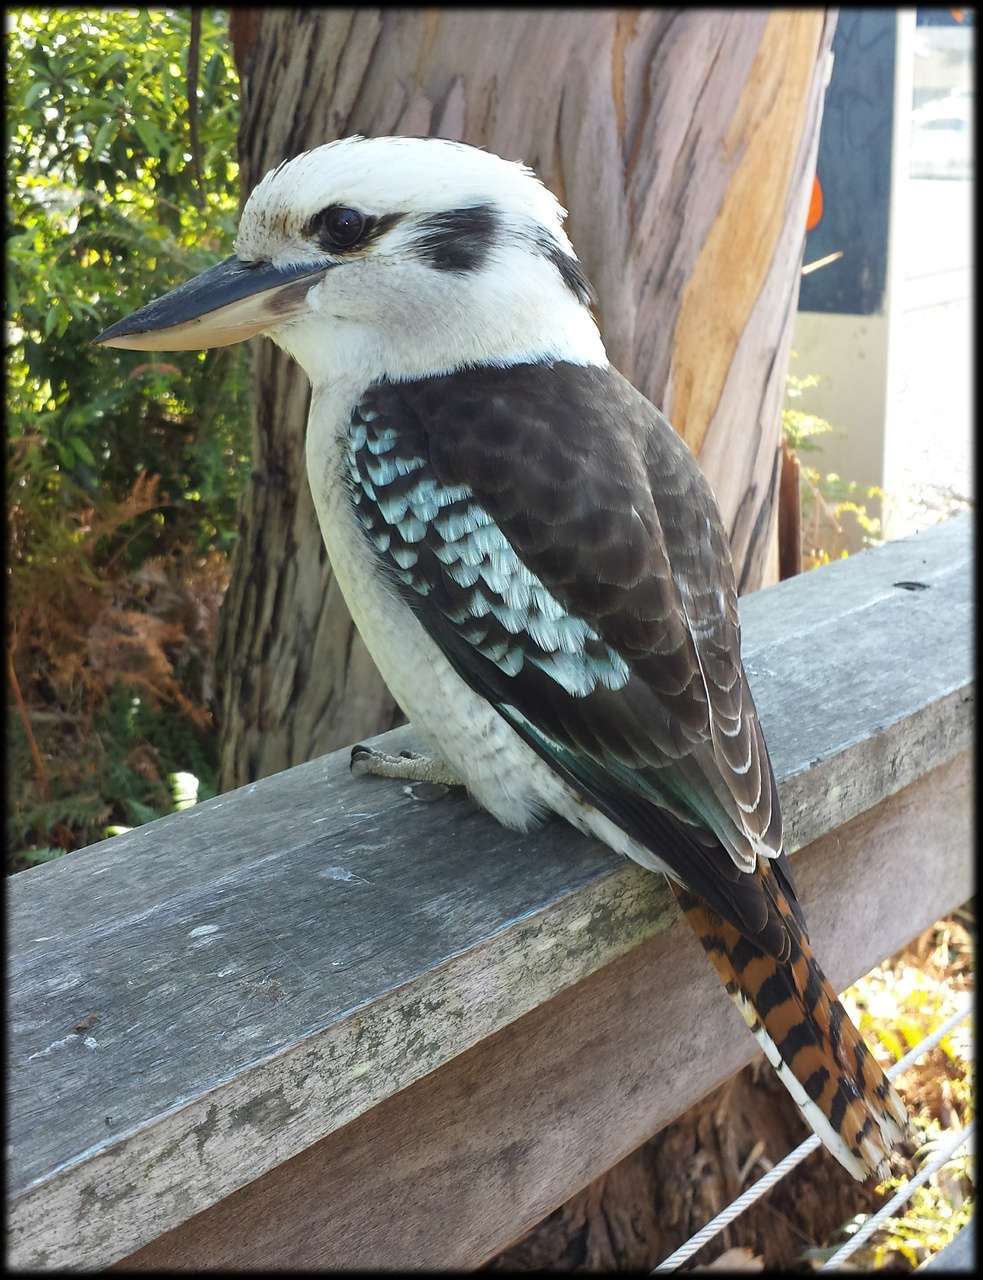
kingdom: Animalia
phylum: Chordata
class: Aves
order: Coraciiformes
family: Alcedinidae
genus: Dacelo
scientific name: Dacelo novaeguineae
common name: Laughing kookaburra
